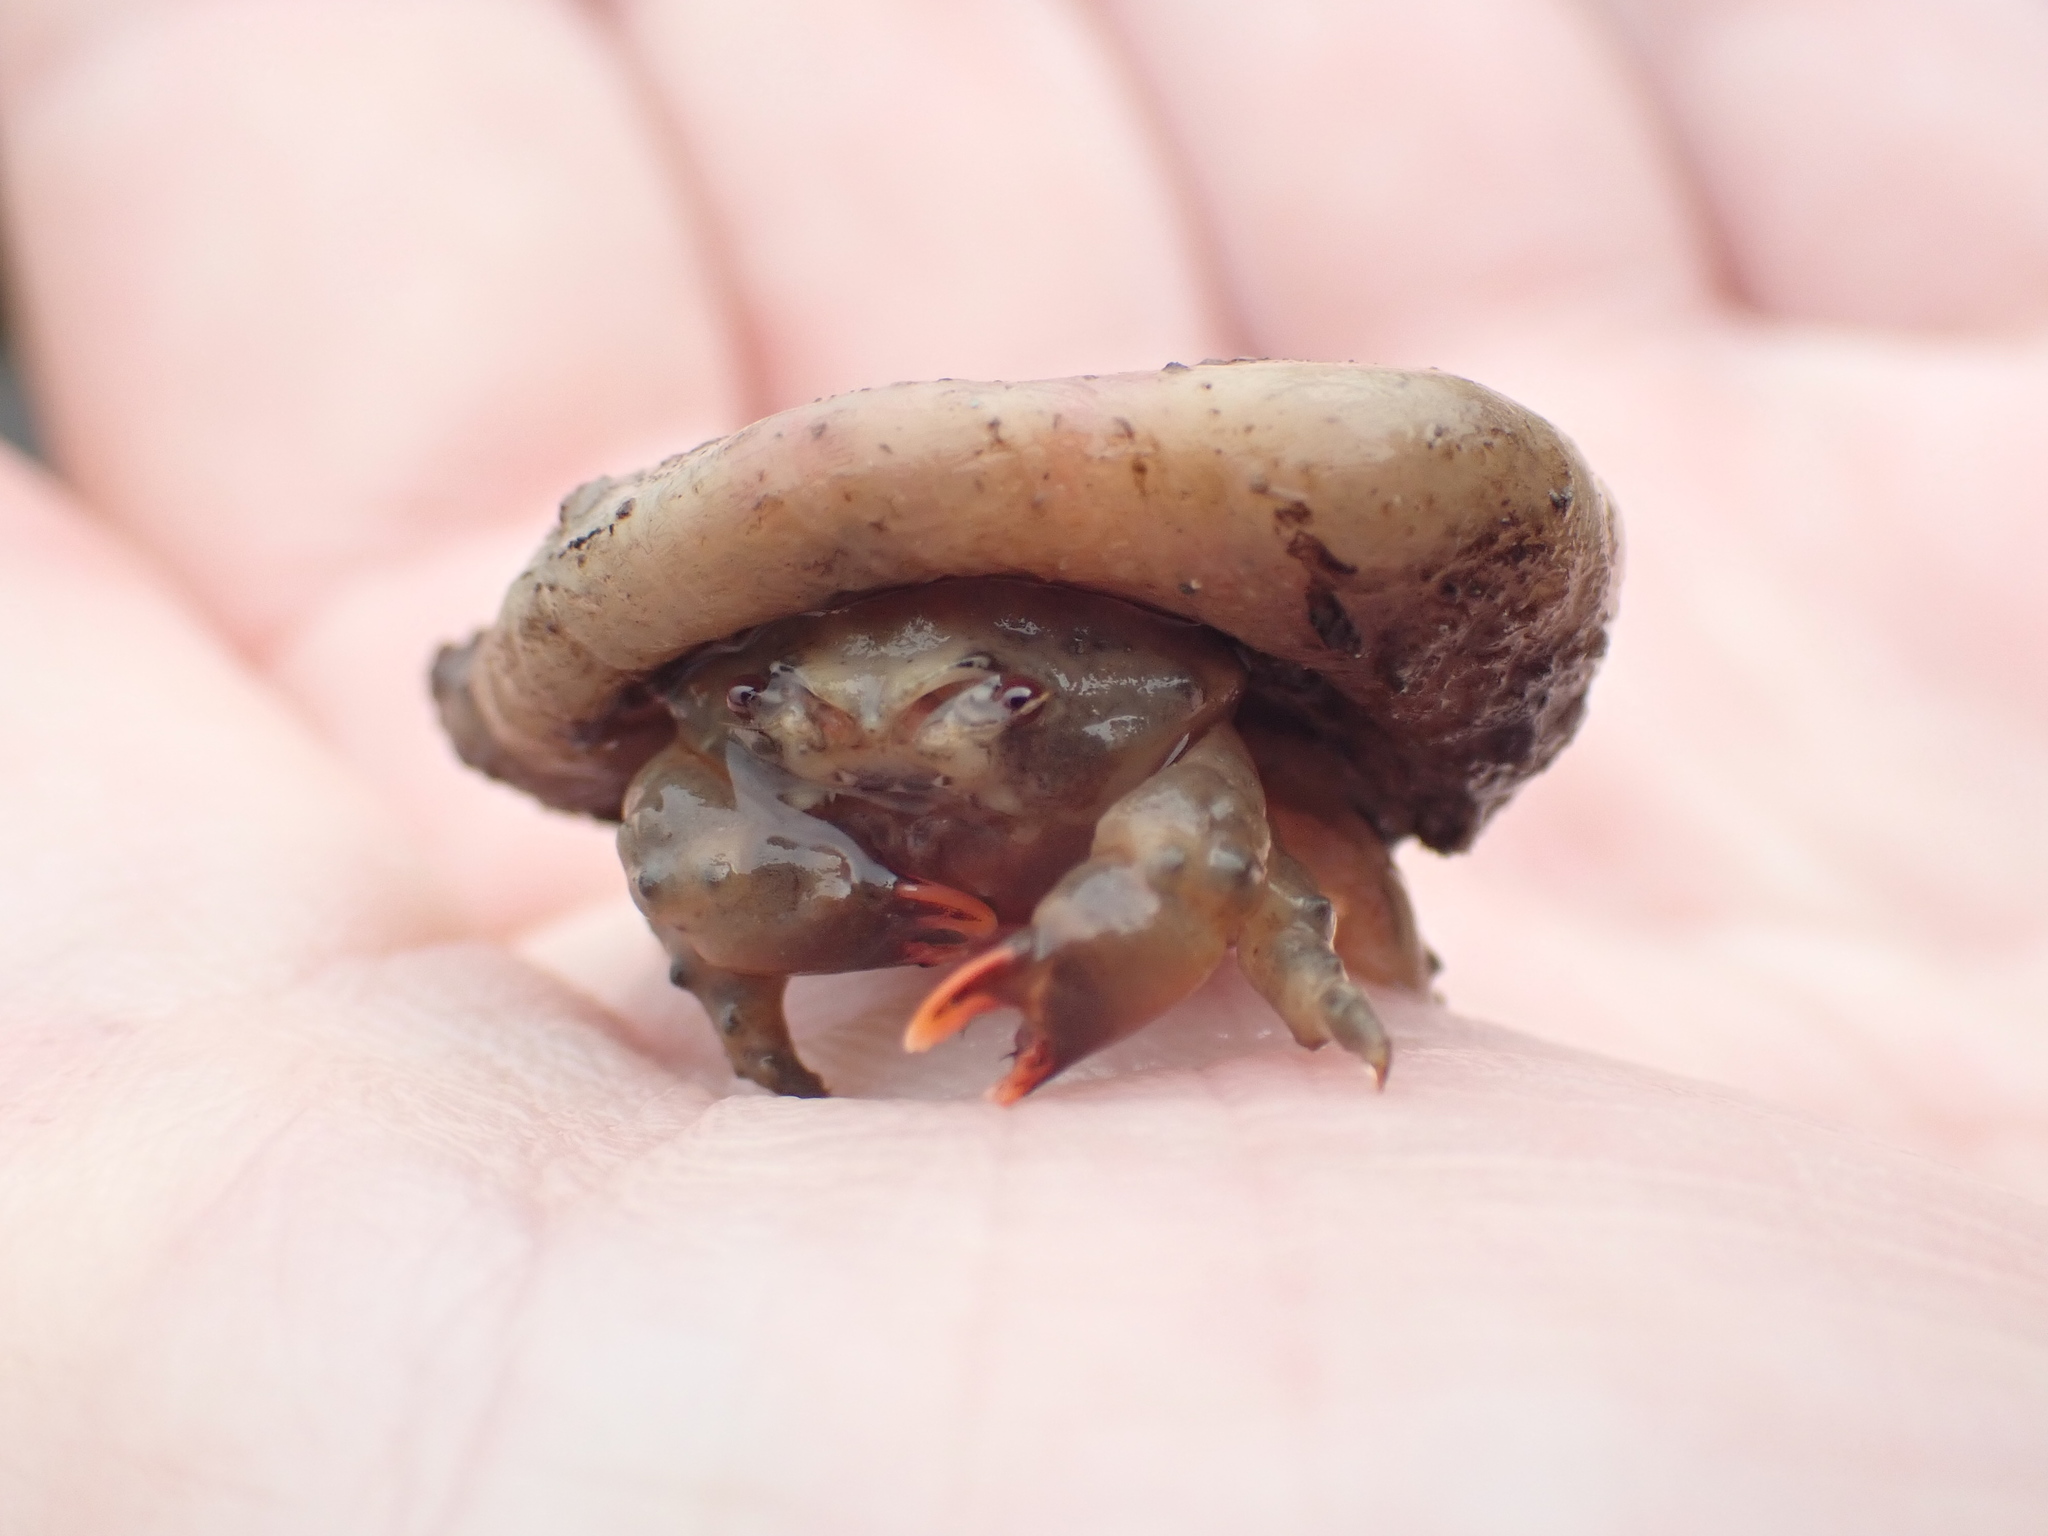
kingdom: Animalia
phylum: Arthropoda
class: Malacostraca
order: Decapoda
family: Dromiidae
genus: Metadromia
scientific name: Metadromia wilsoni
